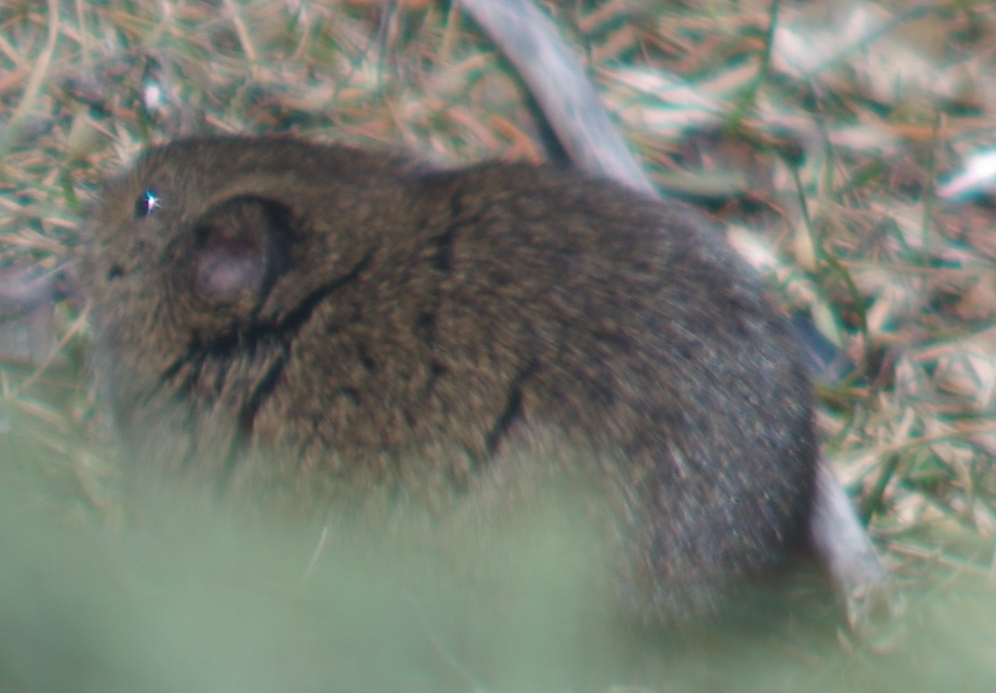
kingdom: Animalia
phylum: Chordata
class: Mammalia
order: Rodentia
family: Cricetidae
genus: Microtus
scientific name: Microtus pennsylvanicus
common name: Meadow vole
